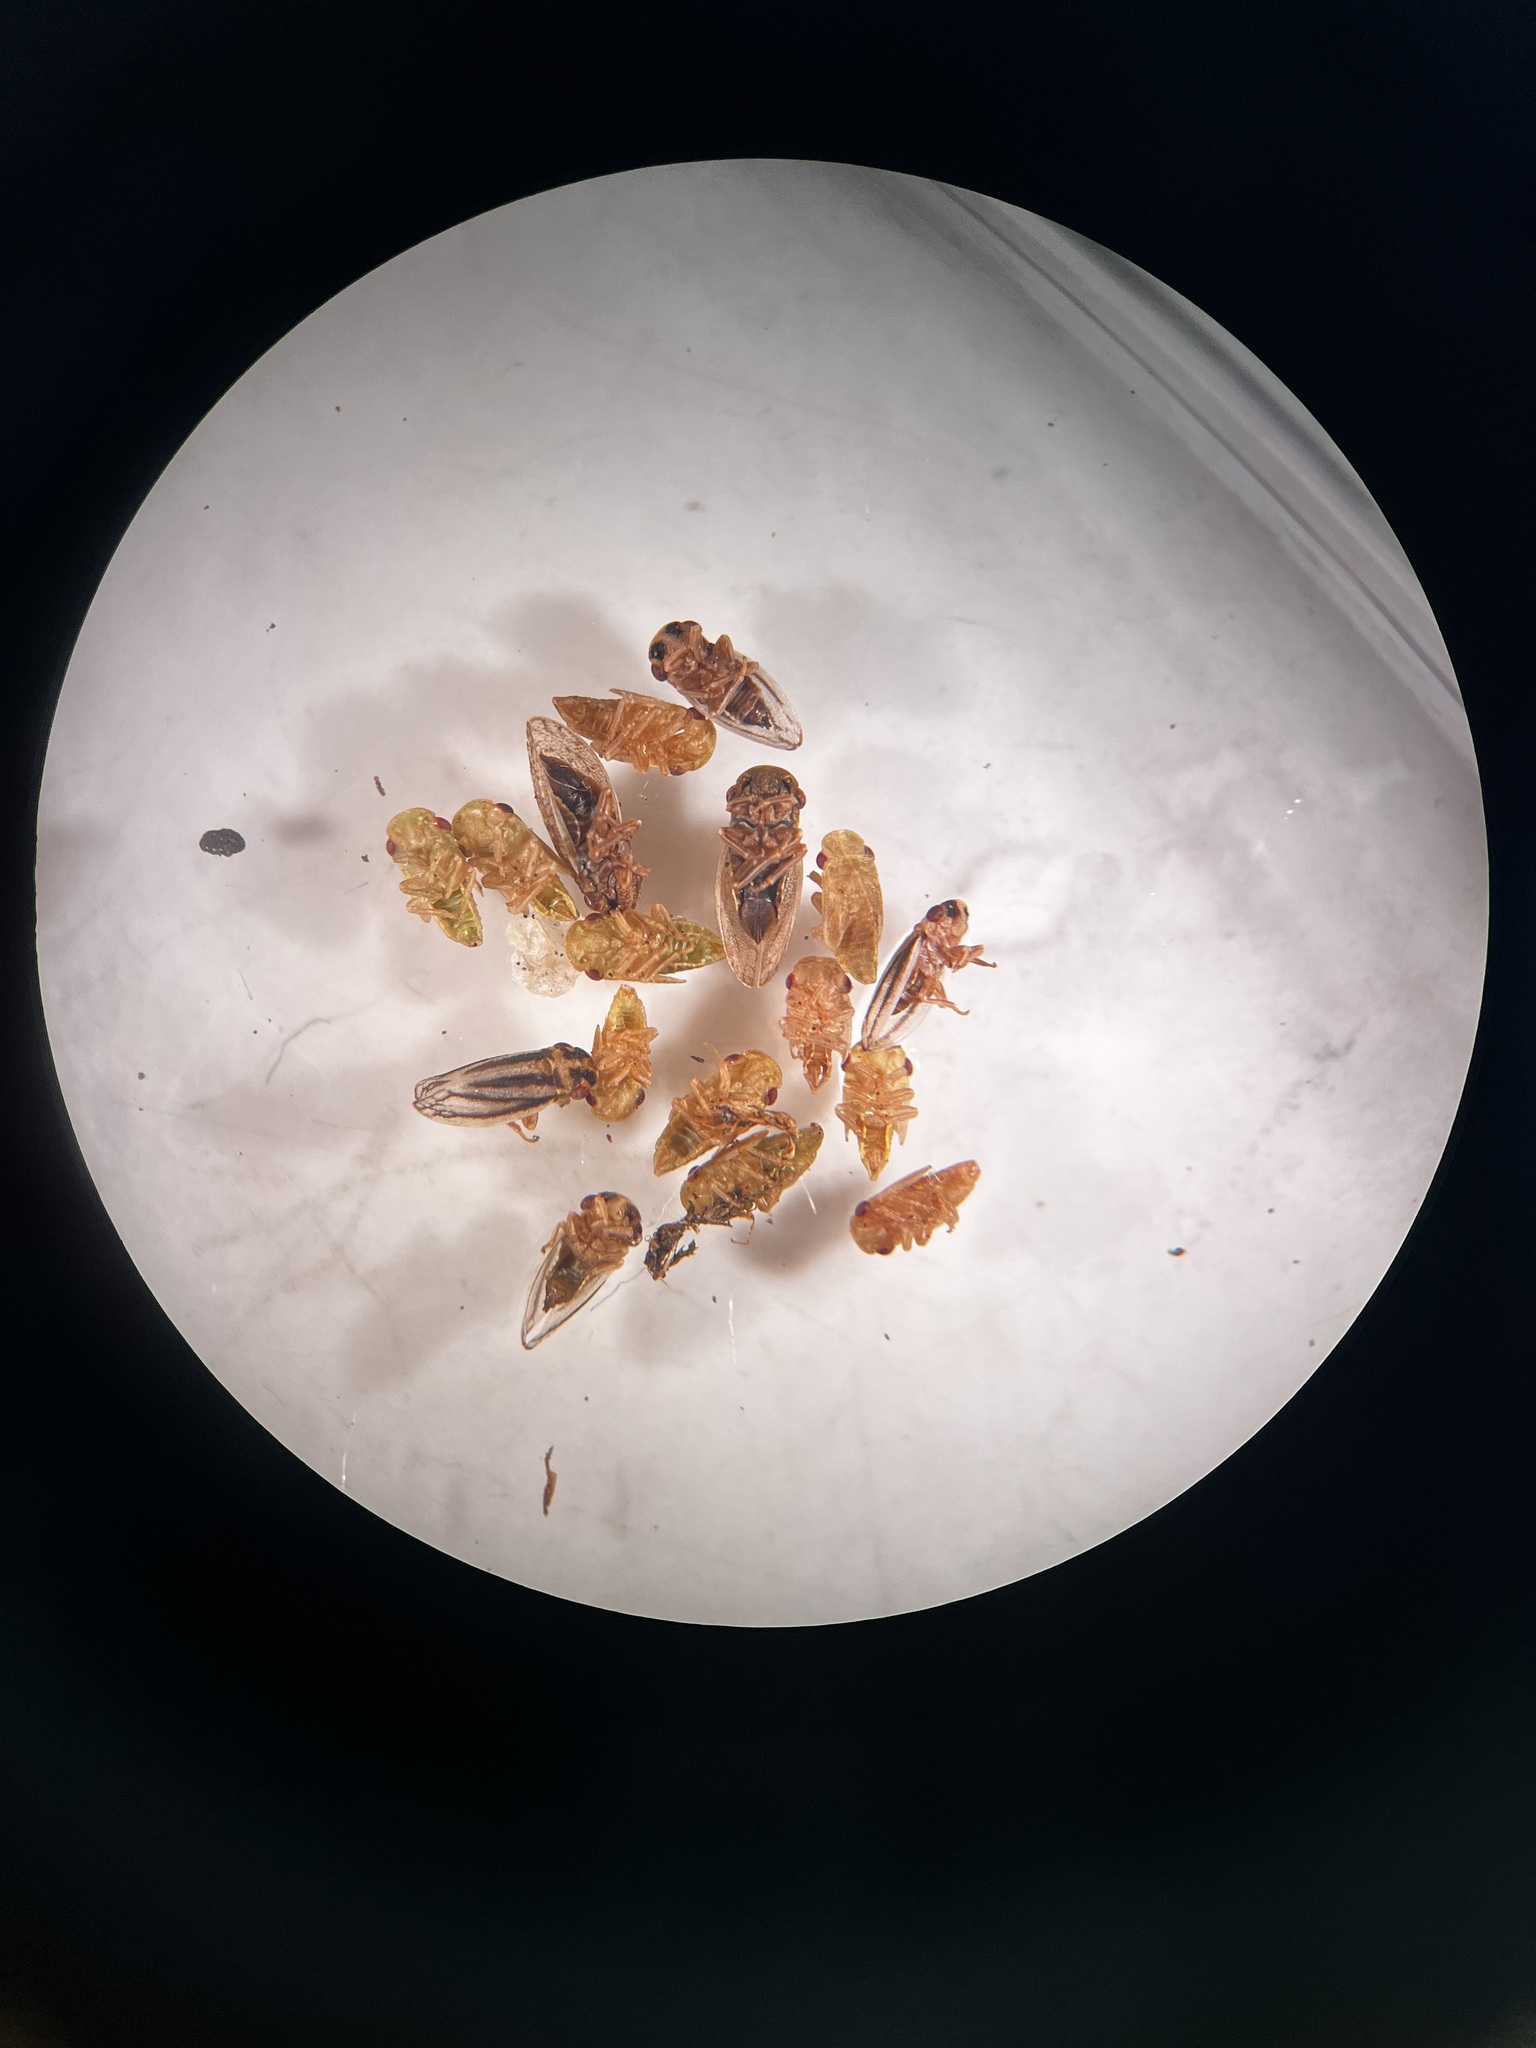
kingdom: Animalia
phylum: Arthropoda
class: Insecta
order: Hemiptera
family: Cicadellidae
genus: Utecha
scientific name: Utecha trivia
